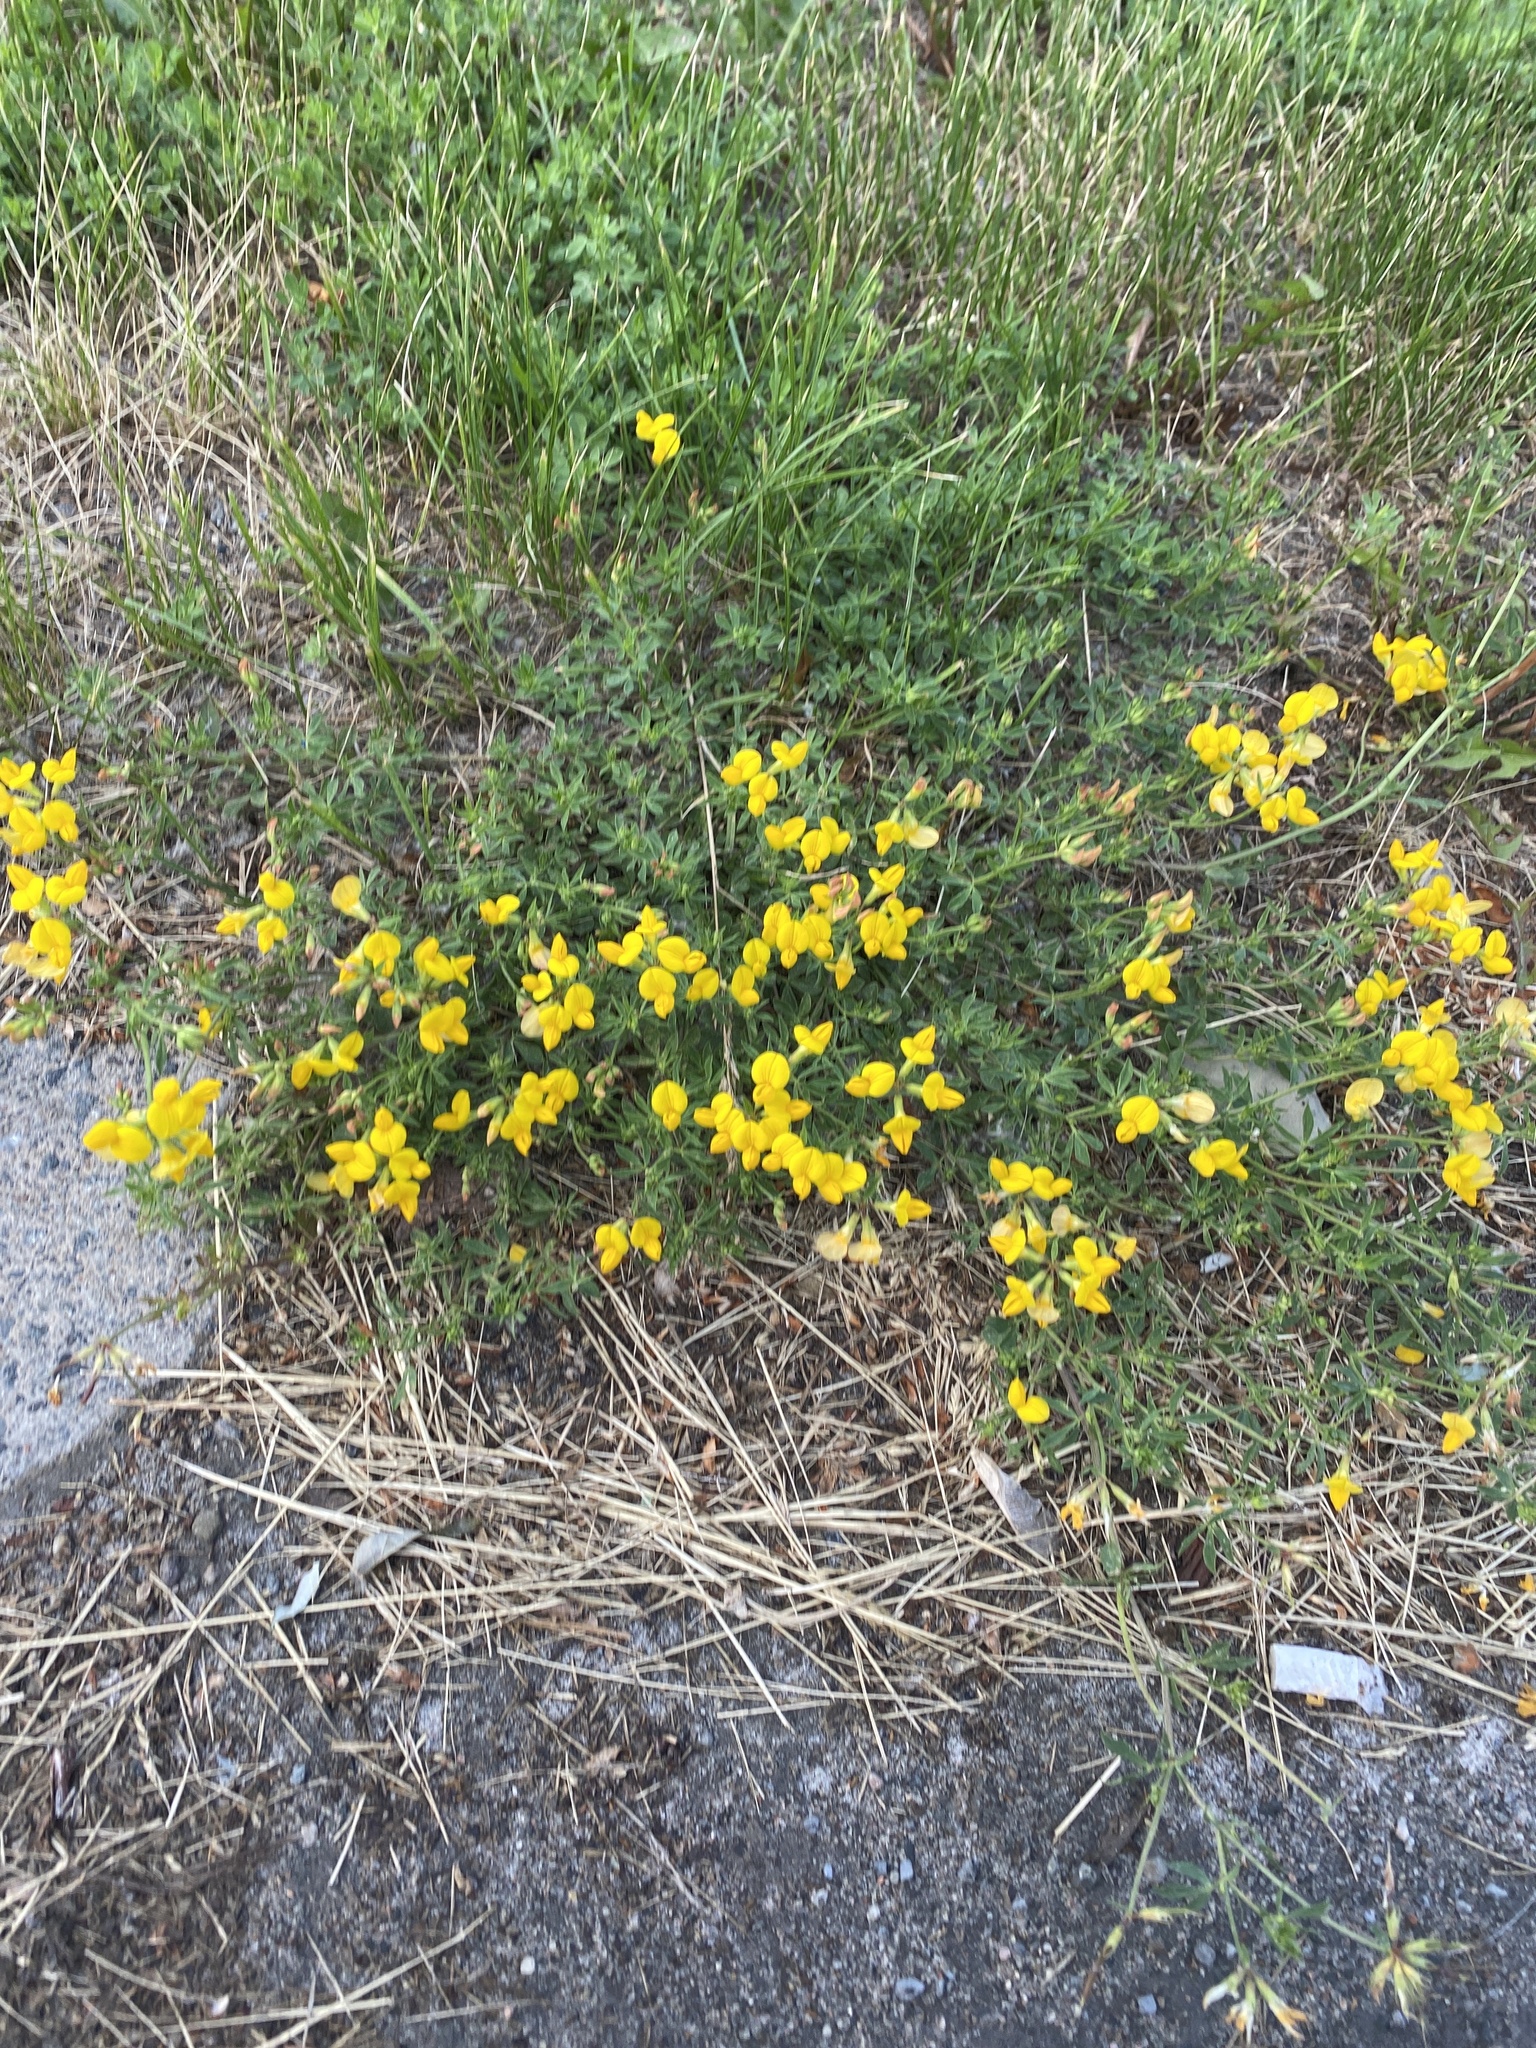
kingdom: Plantae
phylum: Tracheophyta
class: Magnoliopsida
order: Fabales
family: Fabaceae
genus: Lotus
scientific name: Lotus corniculatus
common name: Common bird's-foot-trefoil
